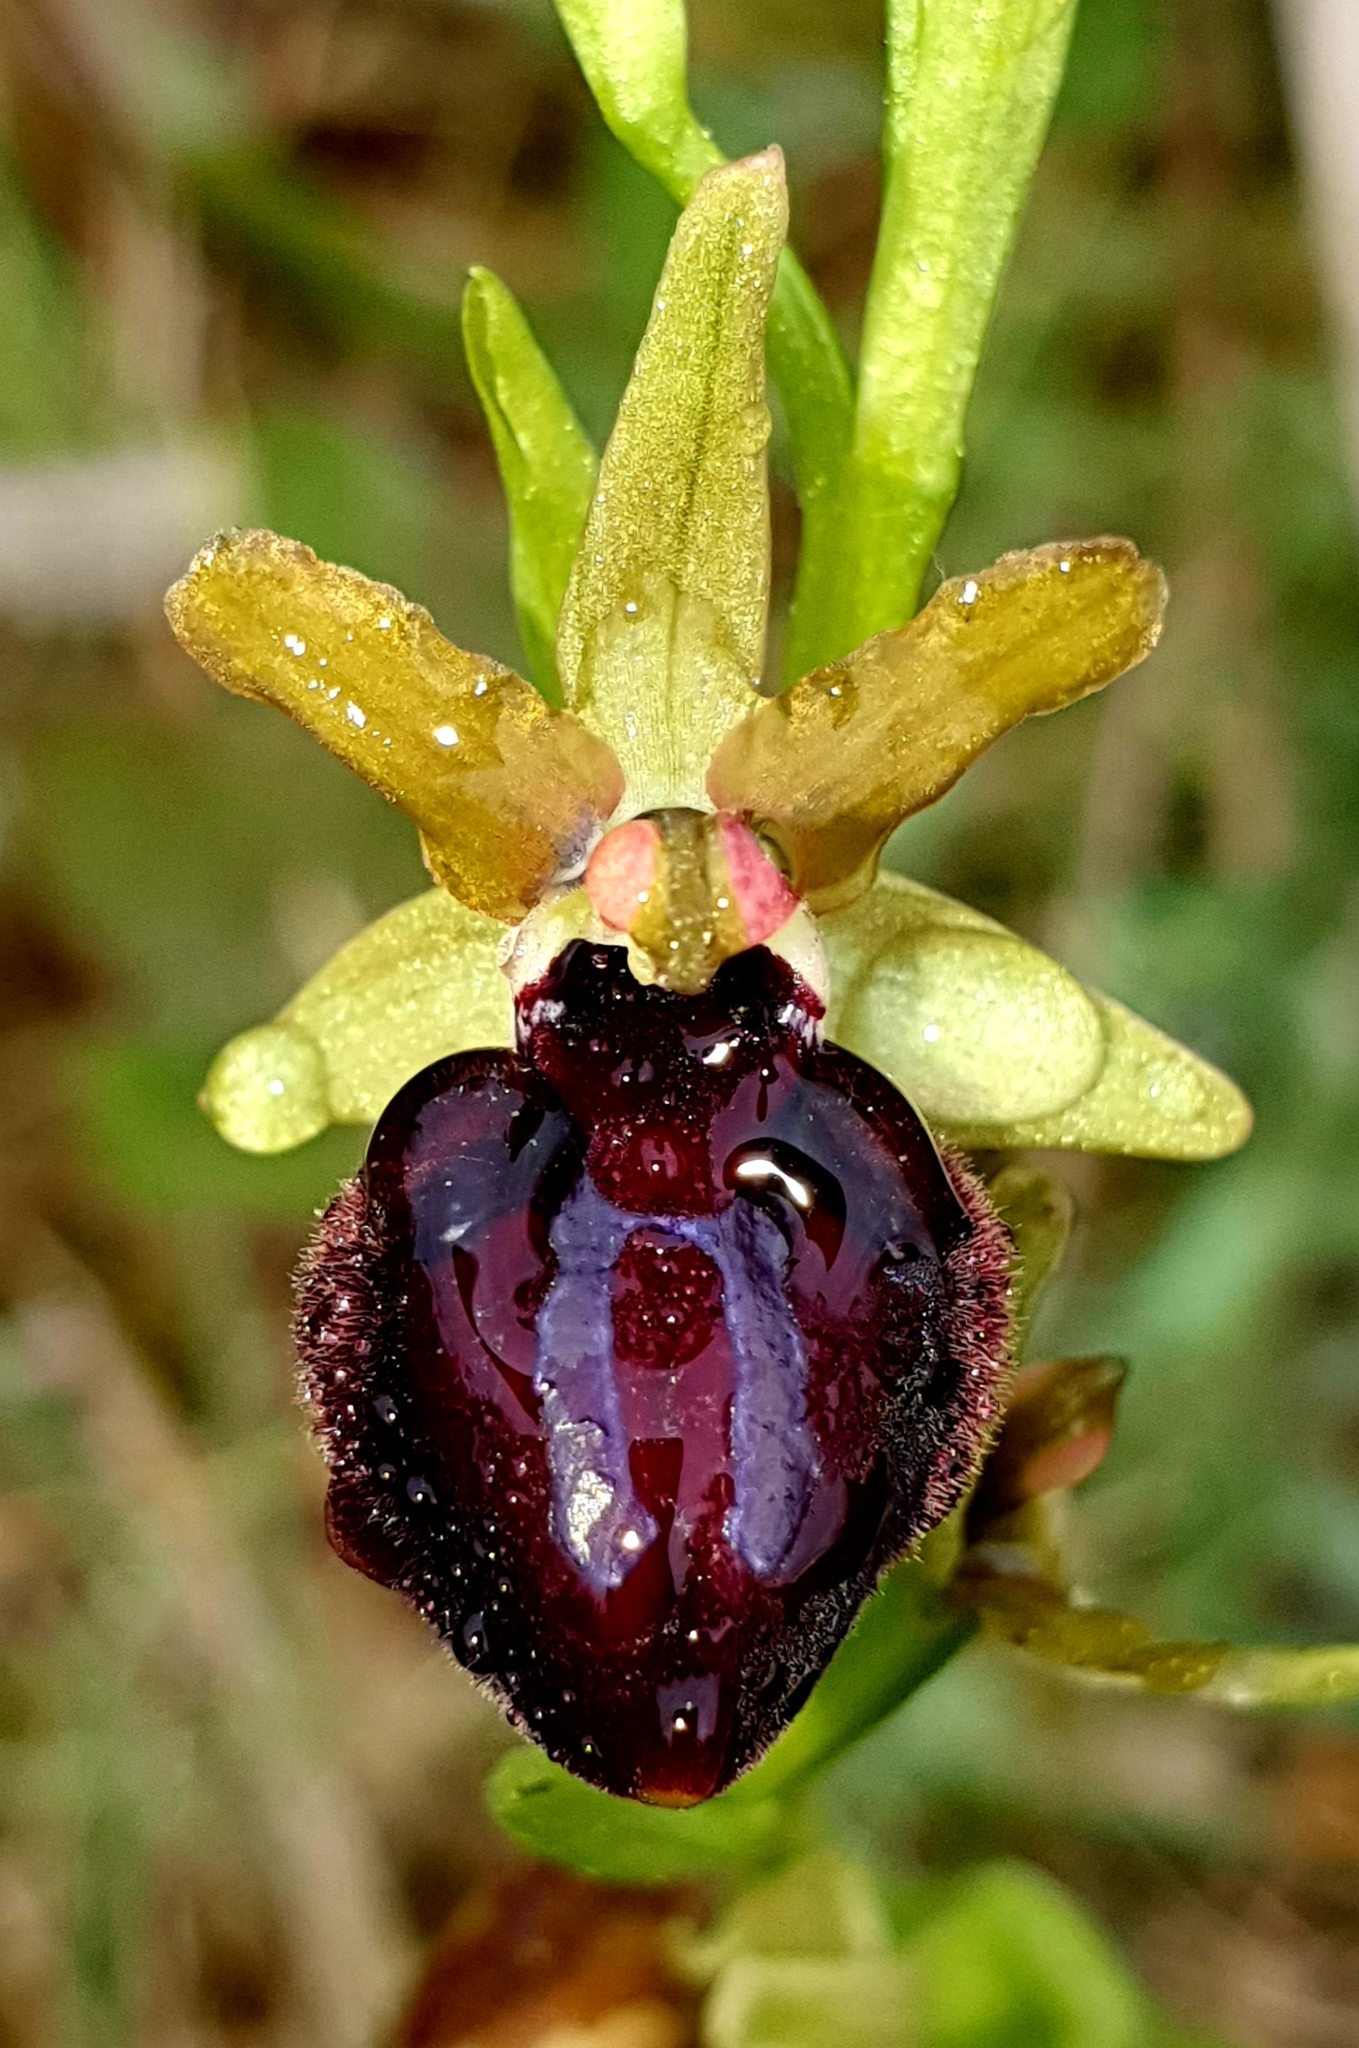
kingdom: Plantae
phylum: Tracheophyta
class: Liliopsida
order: Asparagales
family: Orchidaceae
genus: Ophrys
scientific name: Ophrys sphegodes
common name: Early spider-orchid
